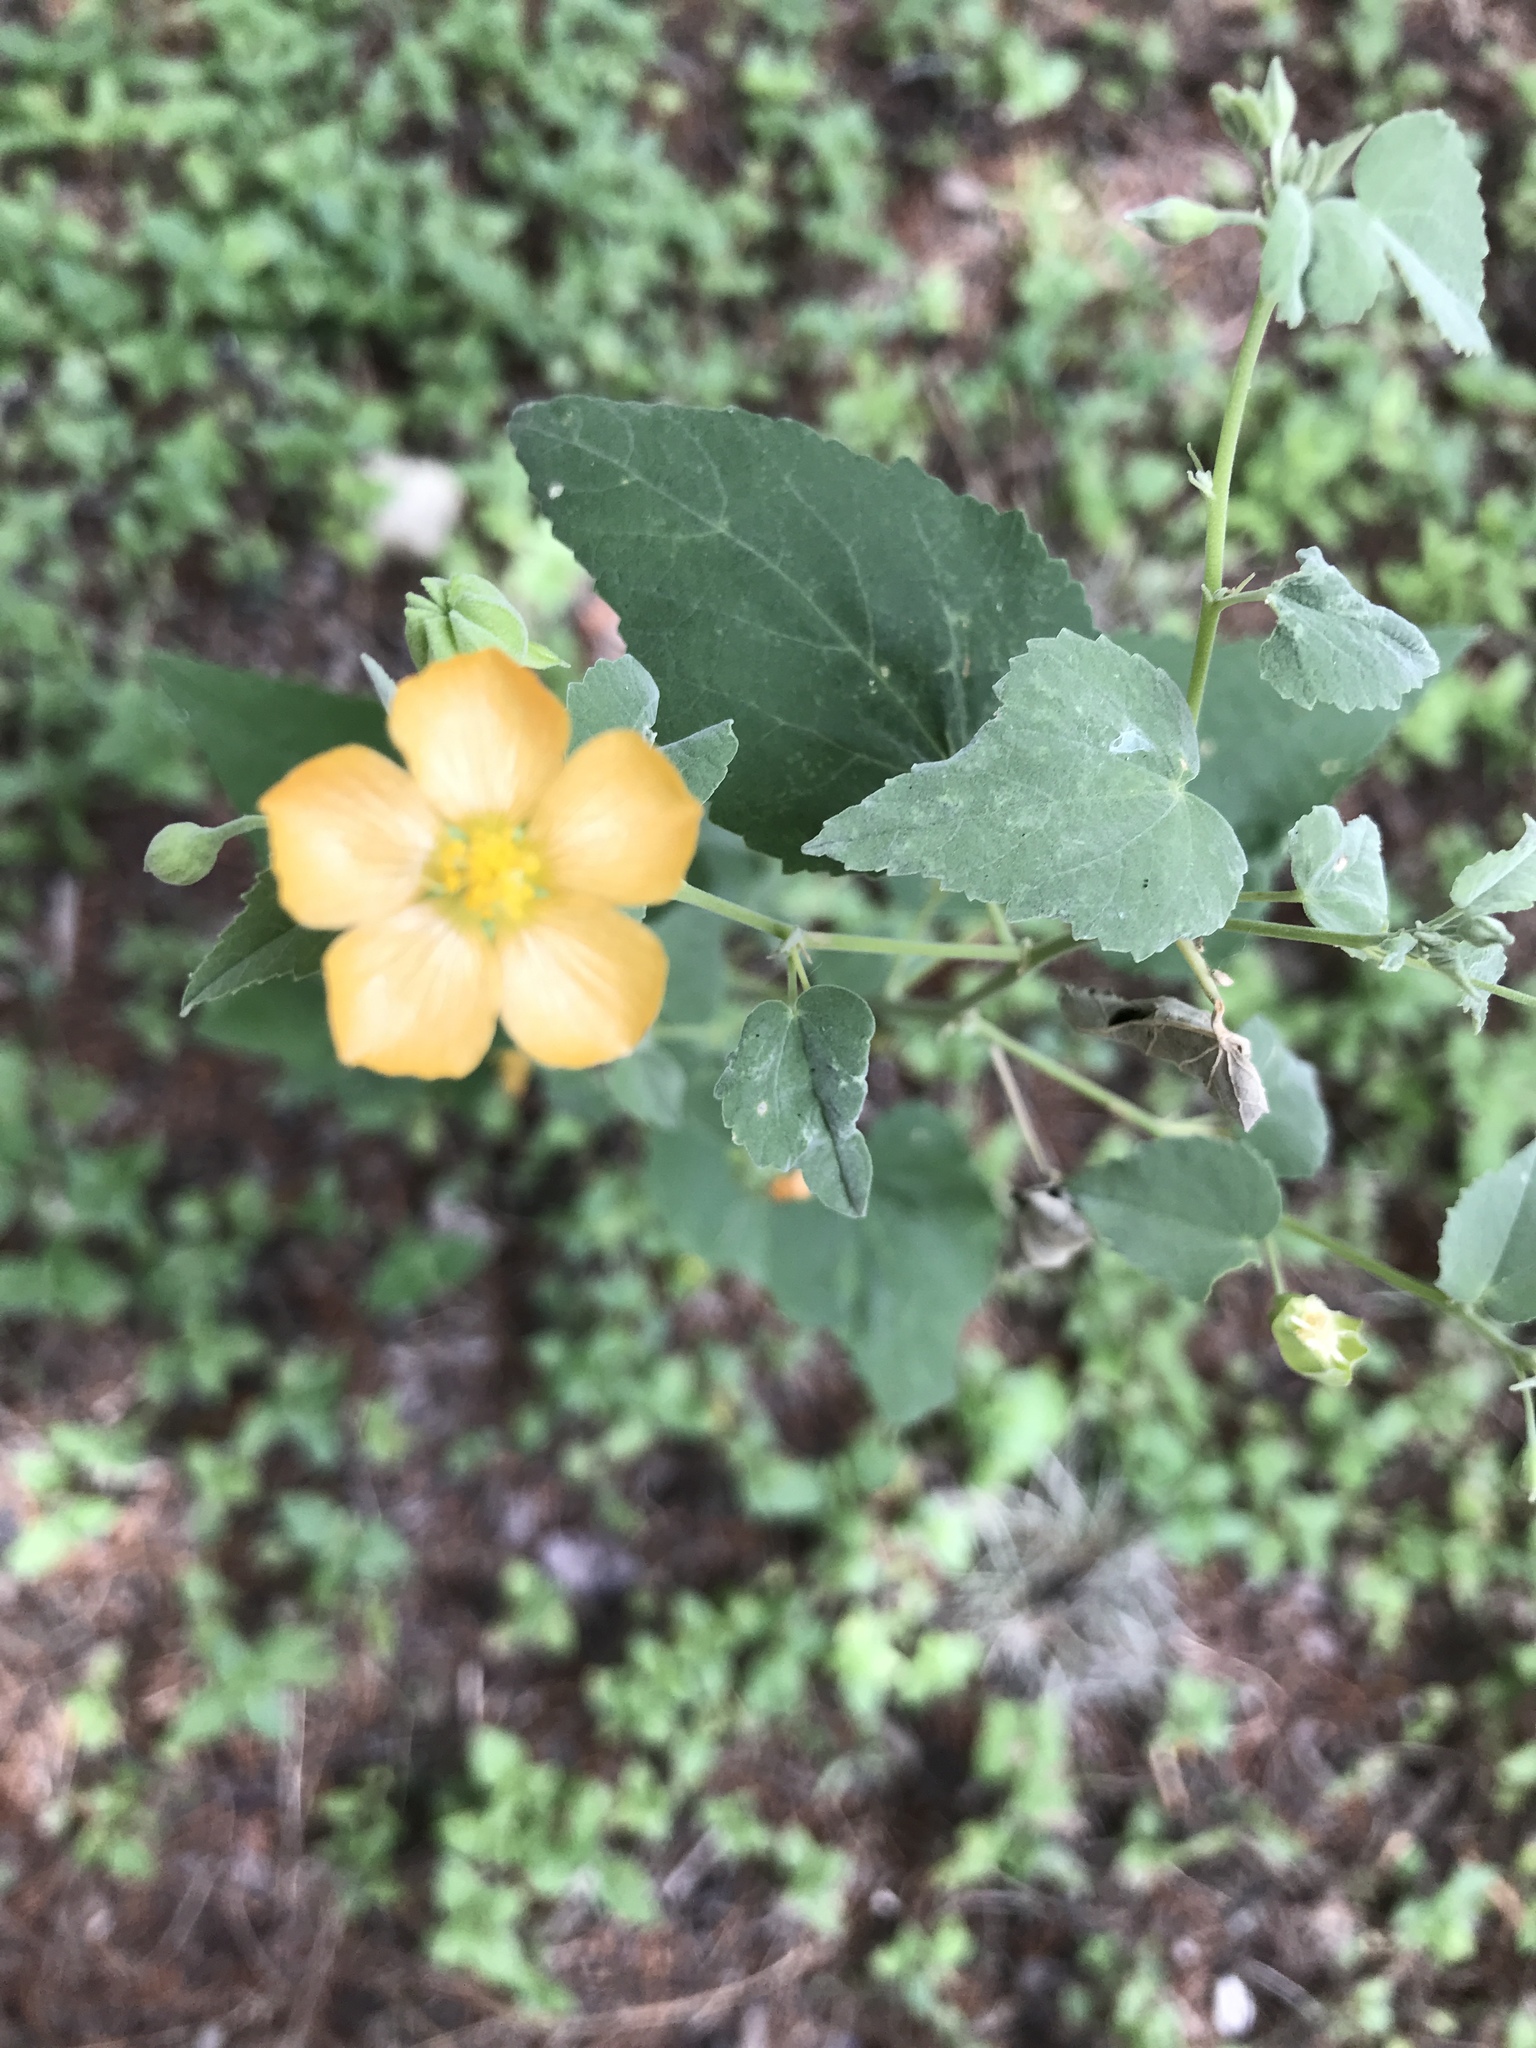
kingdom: Plantae
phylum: Tracheophyta
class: Magnoliopsida
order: Malvales
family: Malvaceae
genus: Abutilon
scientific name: Abutilon fruticosum
